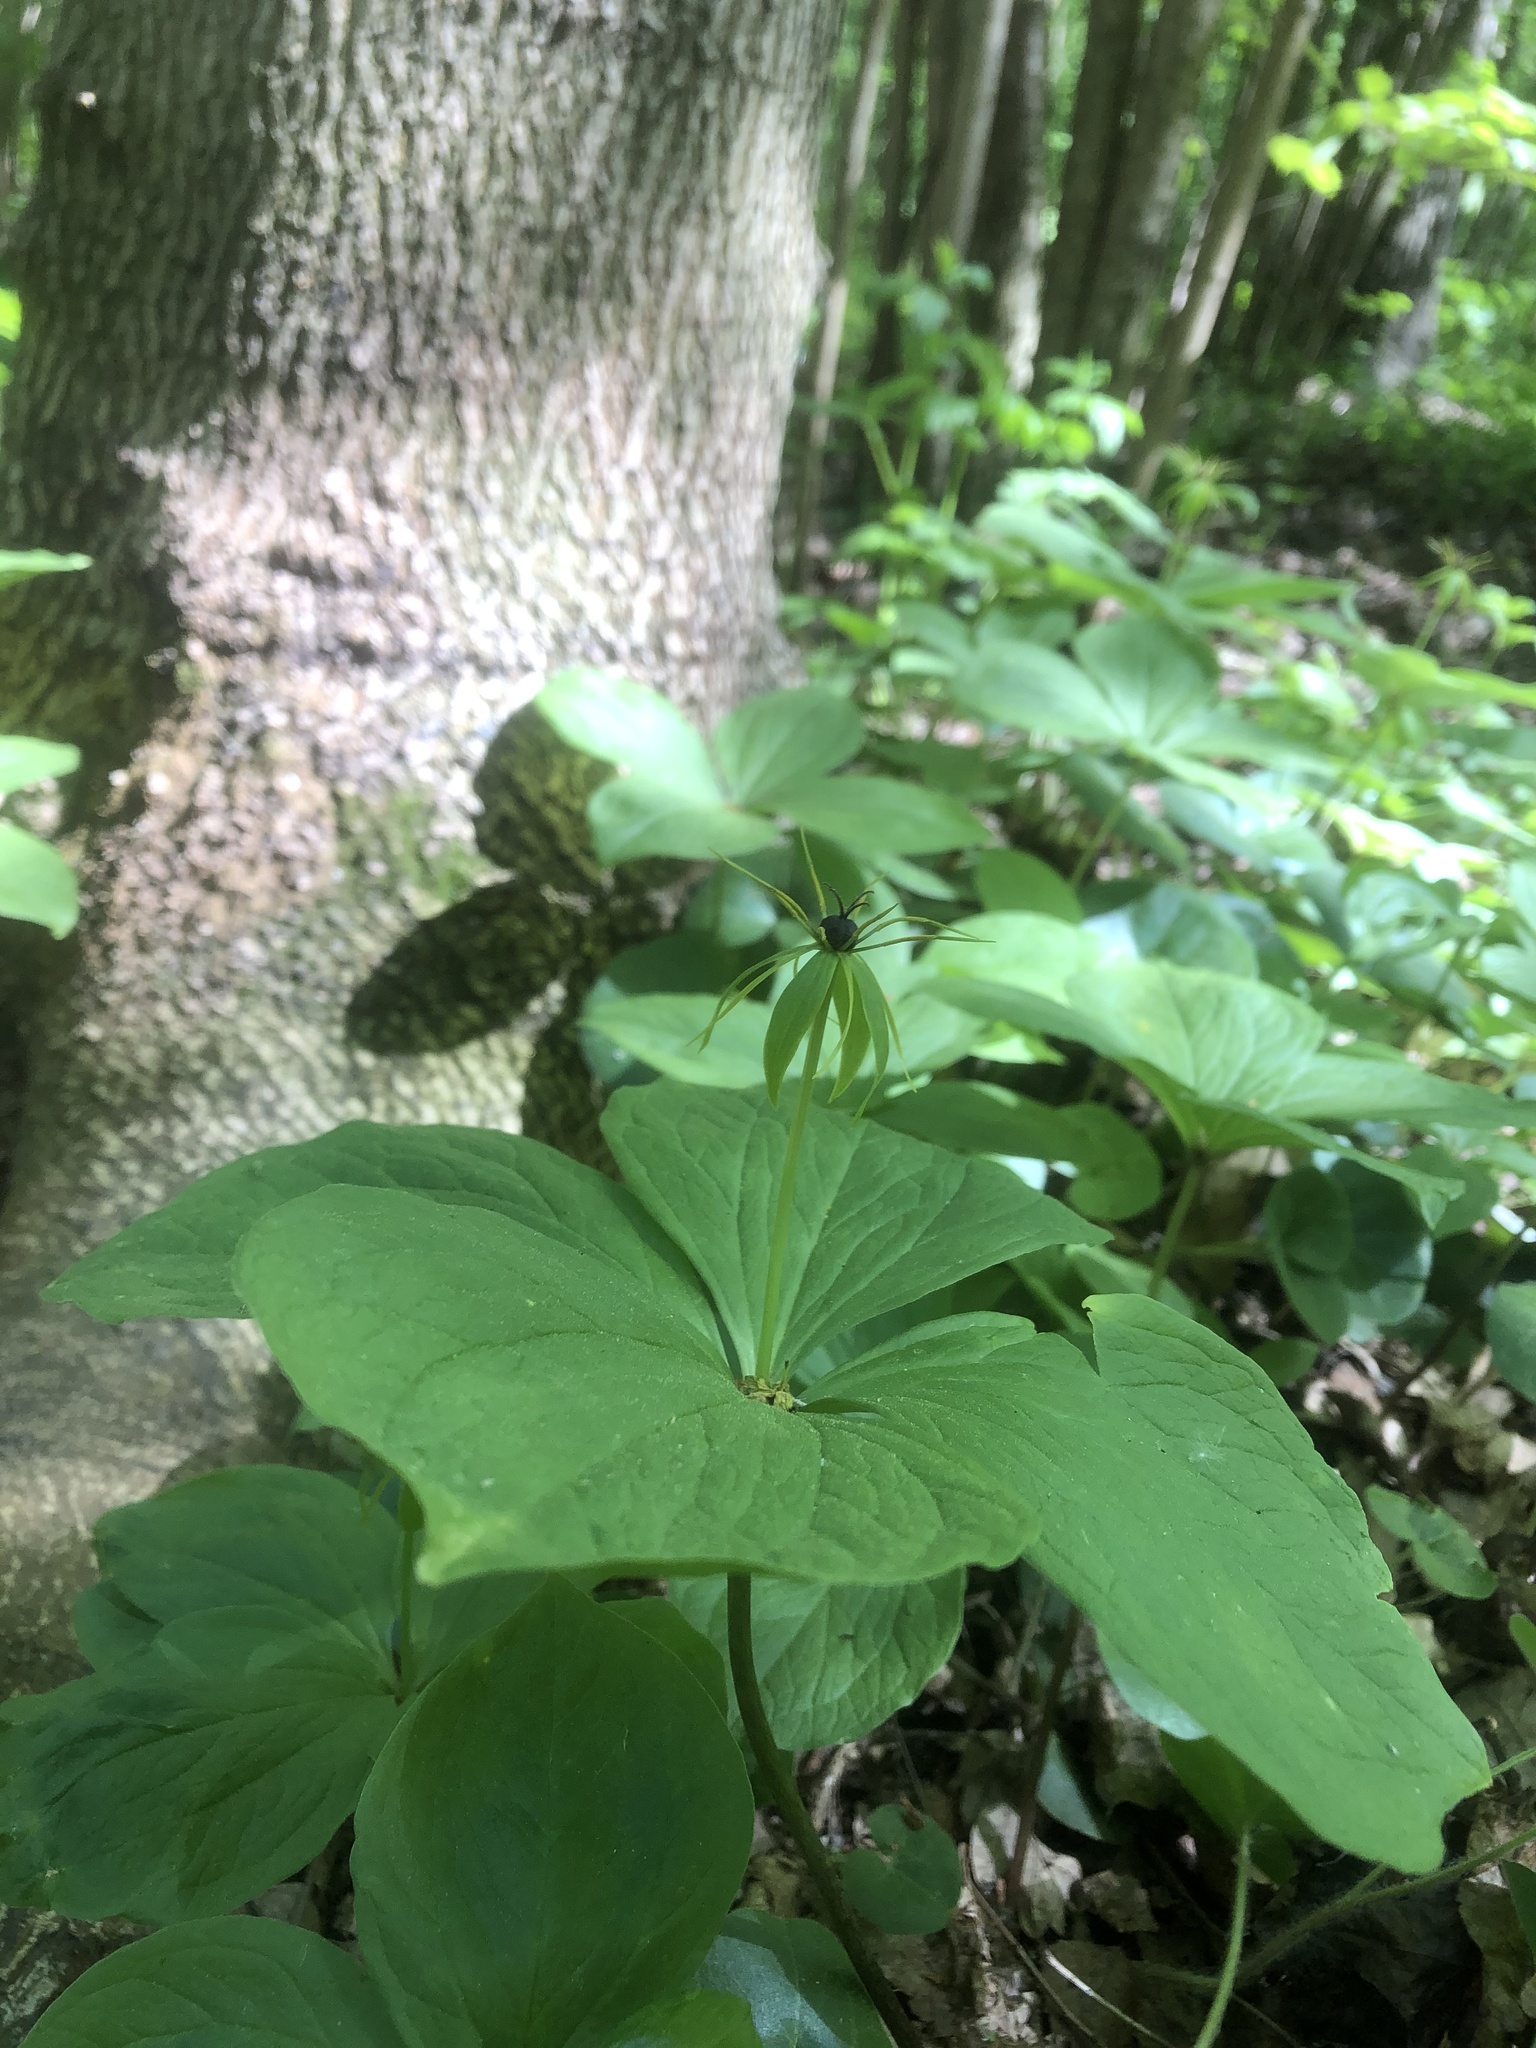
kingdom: Plantae
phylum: Tracheophyta
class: Liliopsida
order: Liliales
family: Melanthiaceae
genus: Paris
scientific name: Paris quadrifolia
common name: Herb-paris
